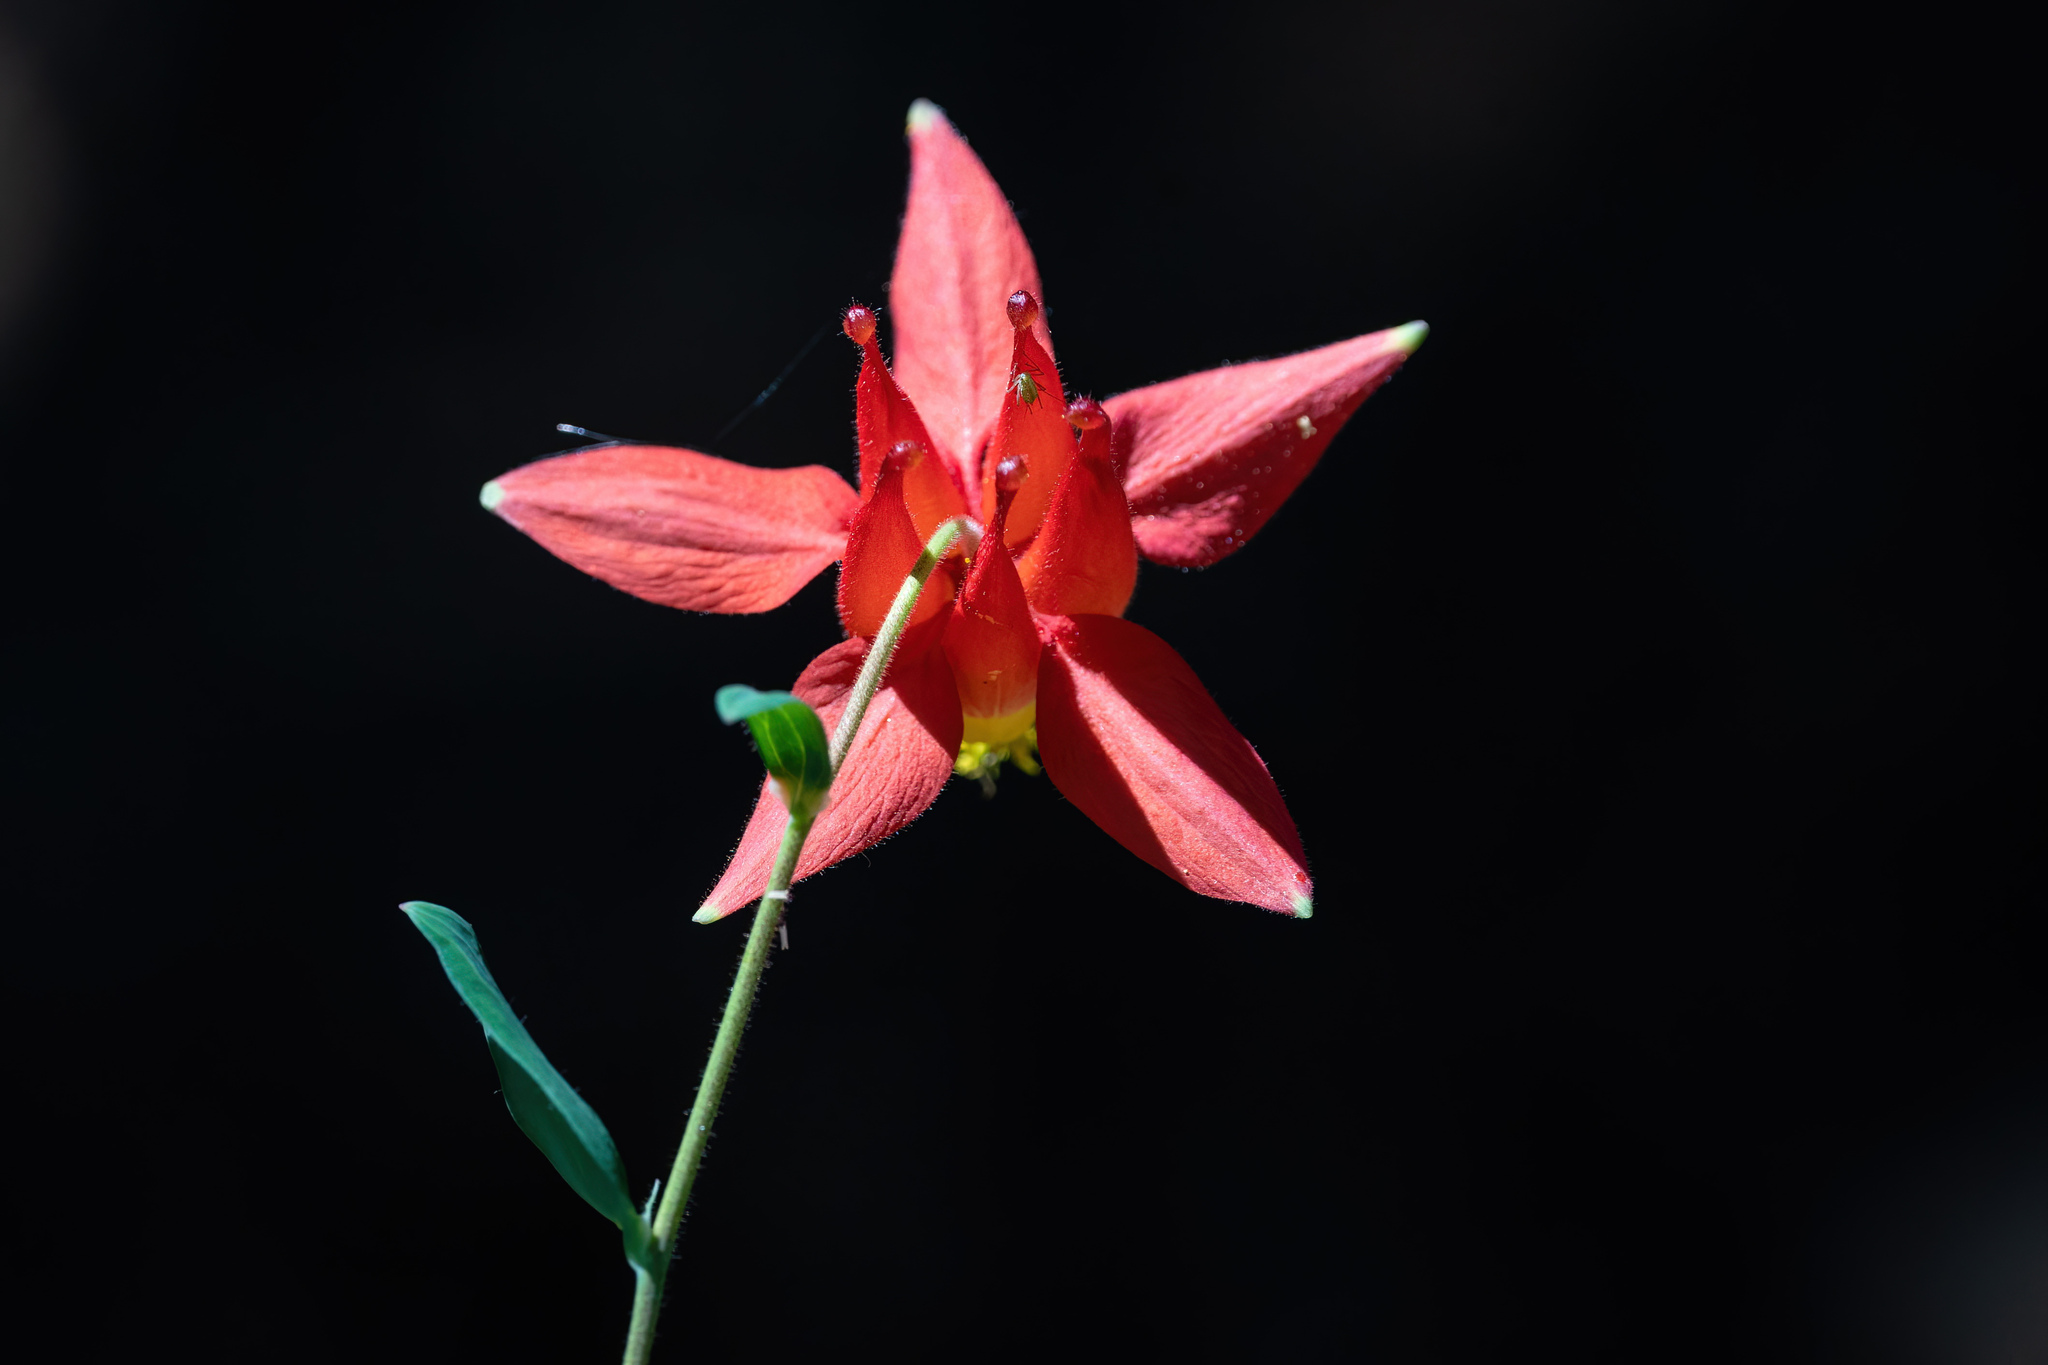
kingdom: Plantae
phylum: Tracheophyta
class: Magnoliopsida
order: Ranunculales
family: Ranunculaceae
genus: Aquilegia
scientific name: Aquilegia formosa
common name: Sitka columbine
